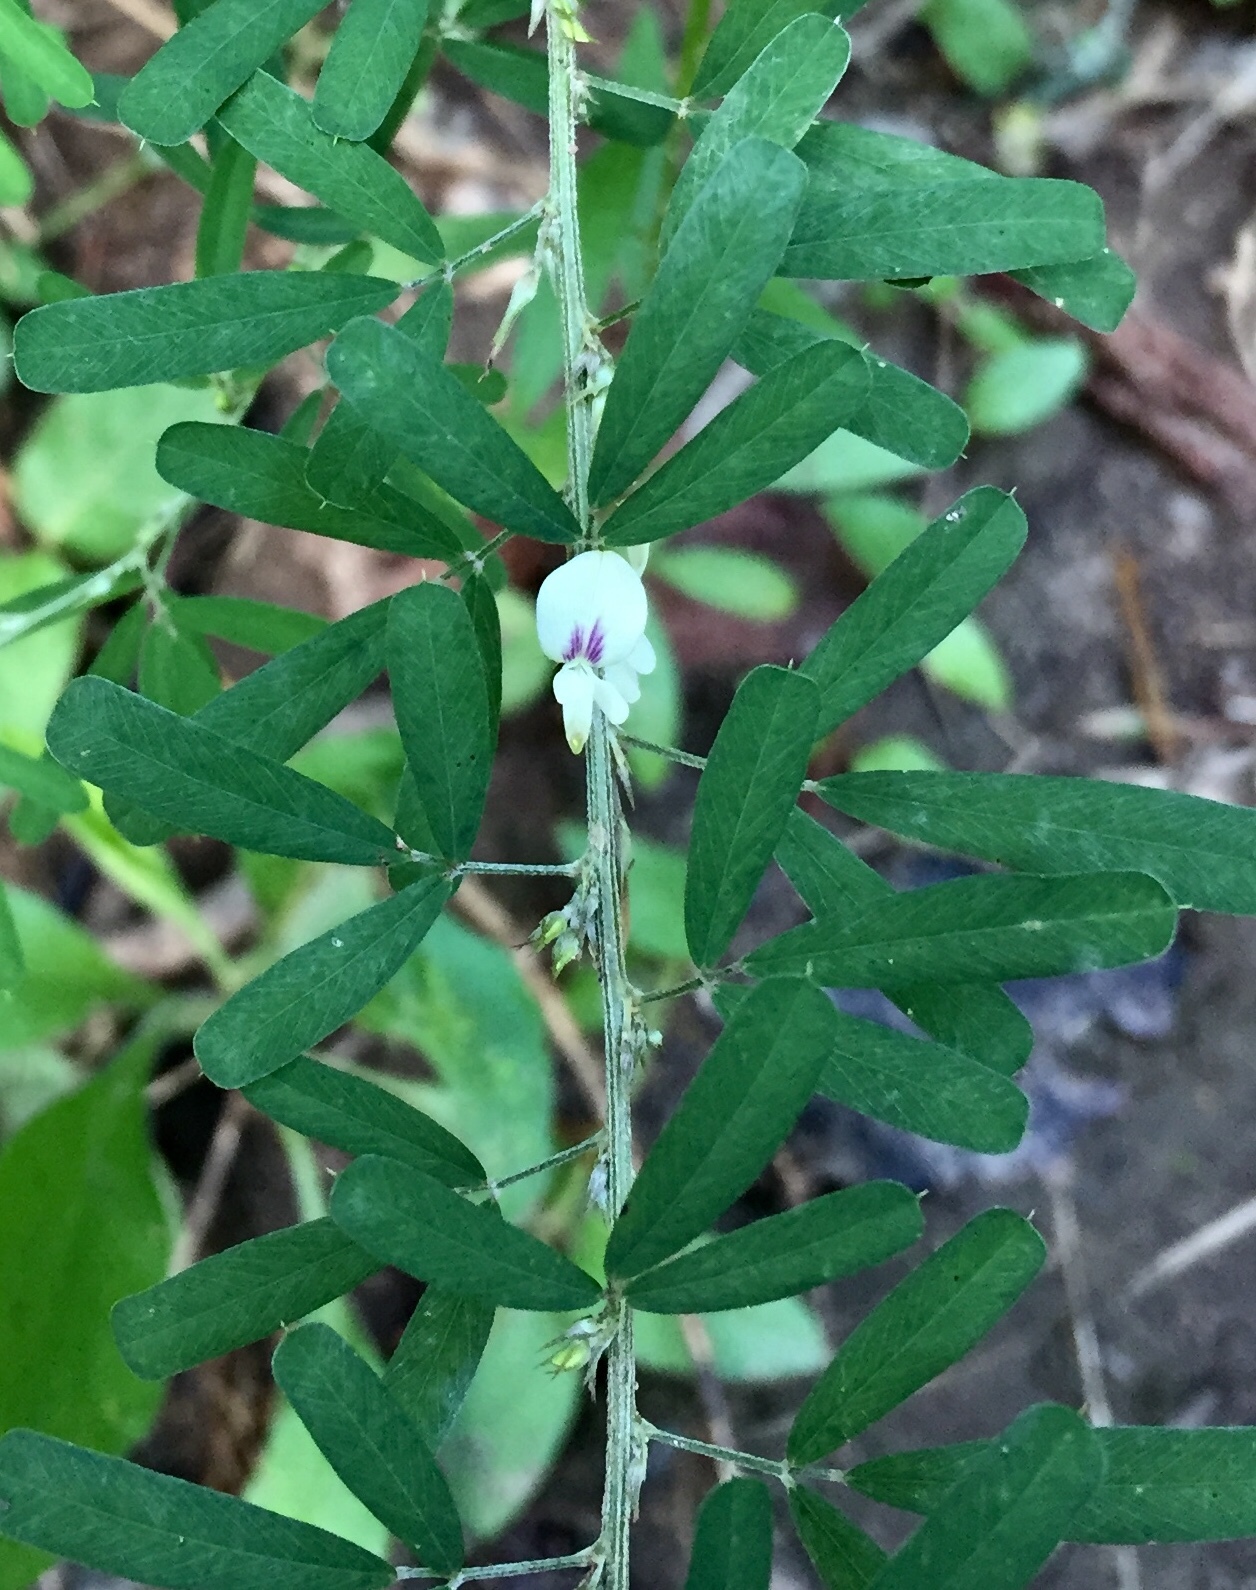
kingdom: Plantae
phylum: Tracheophyta
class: Magnoliopsida
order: Fabales
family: Fabaceae
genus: Lespedeza
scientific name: Lespedeza cuneata
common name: Chinese bush-clover
